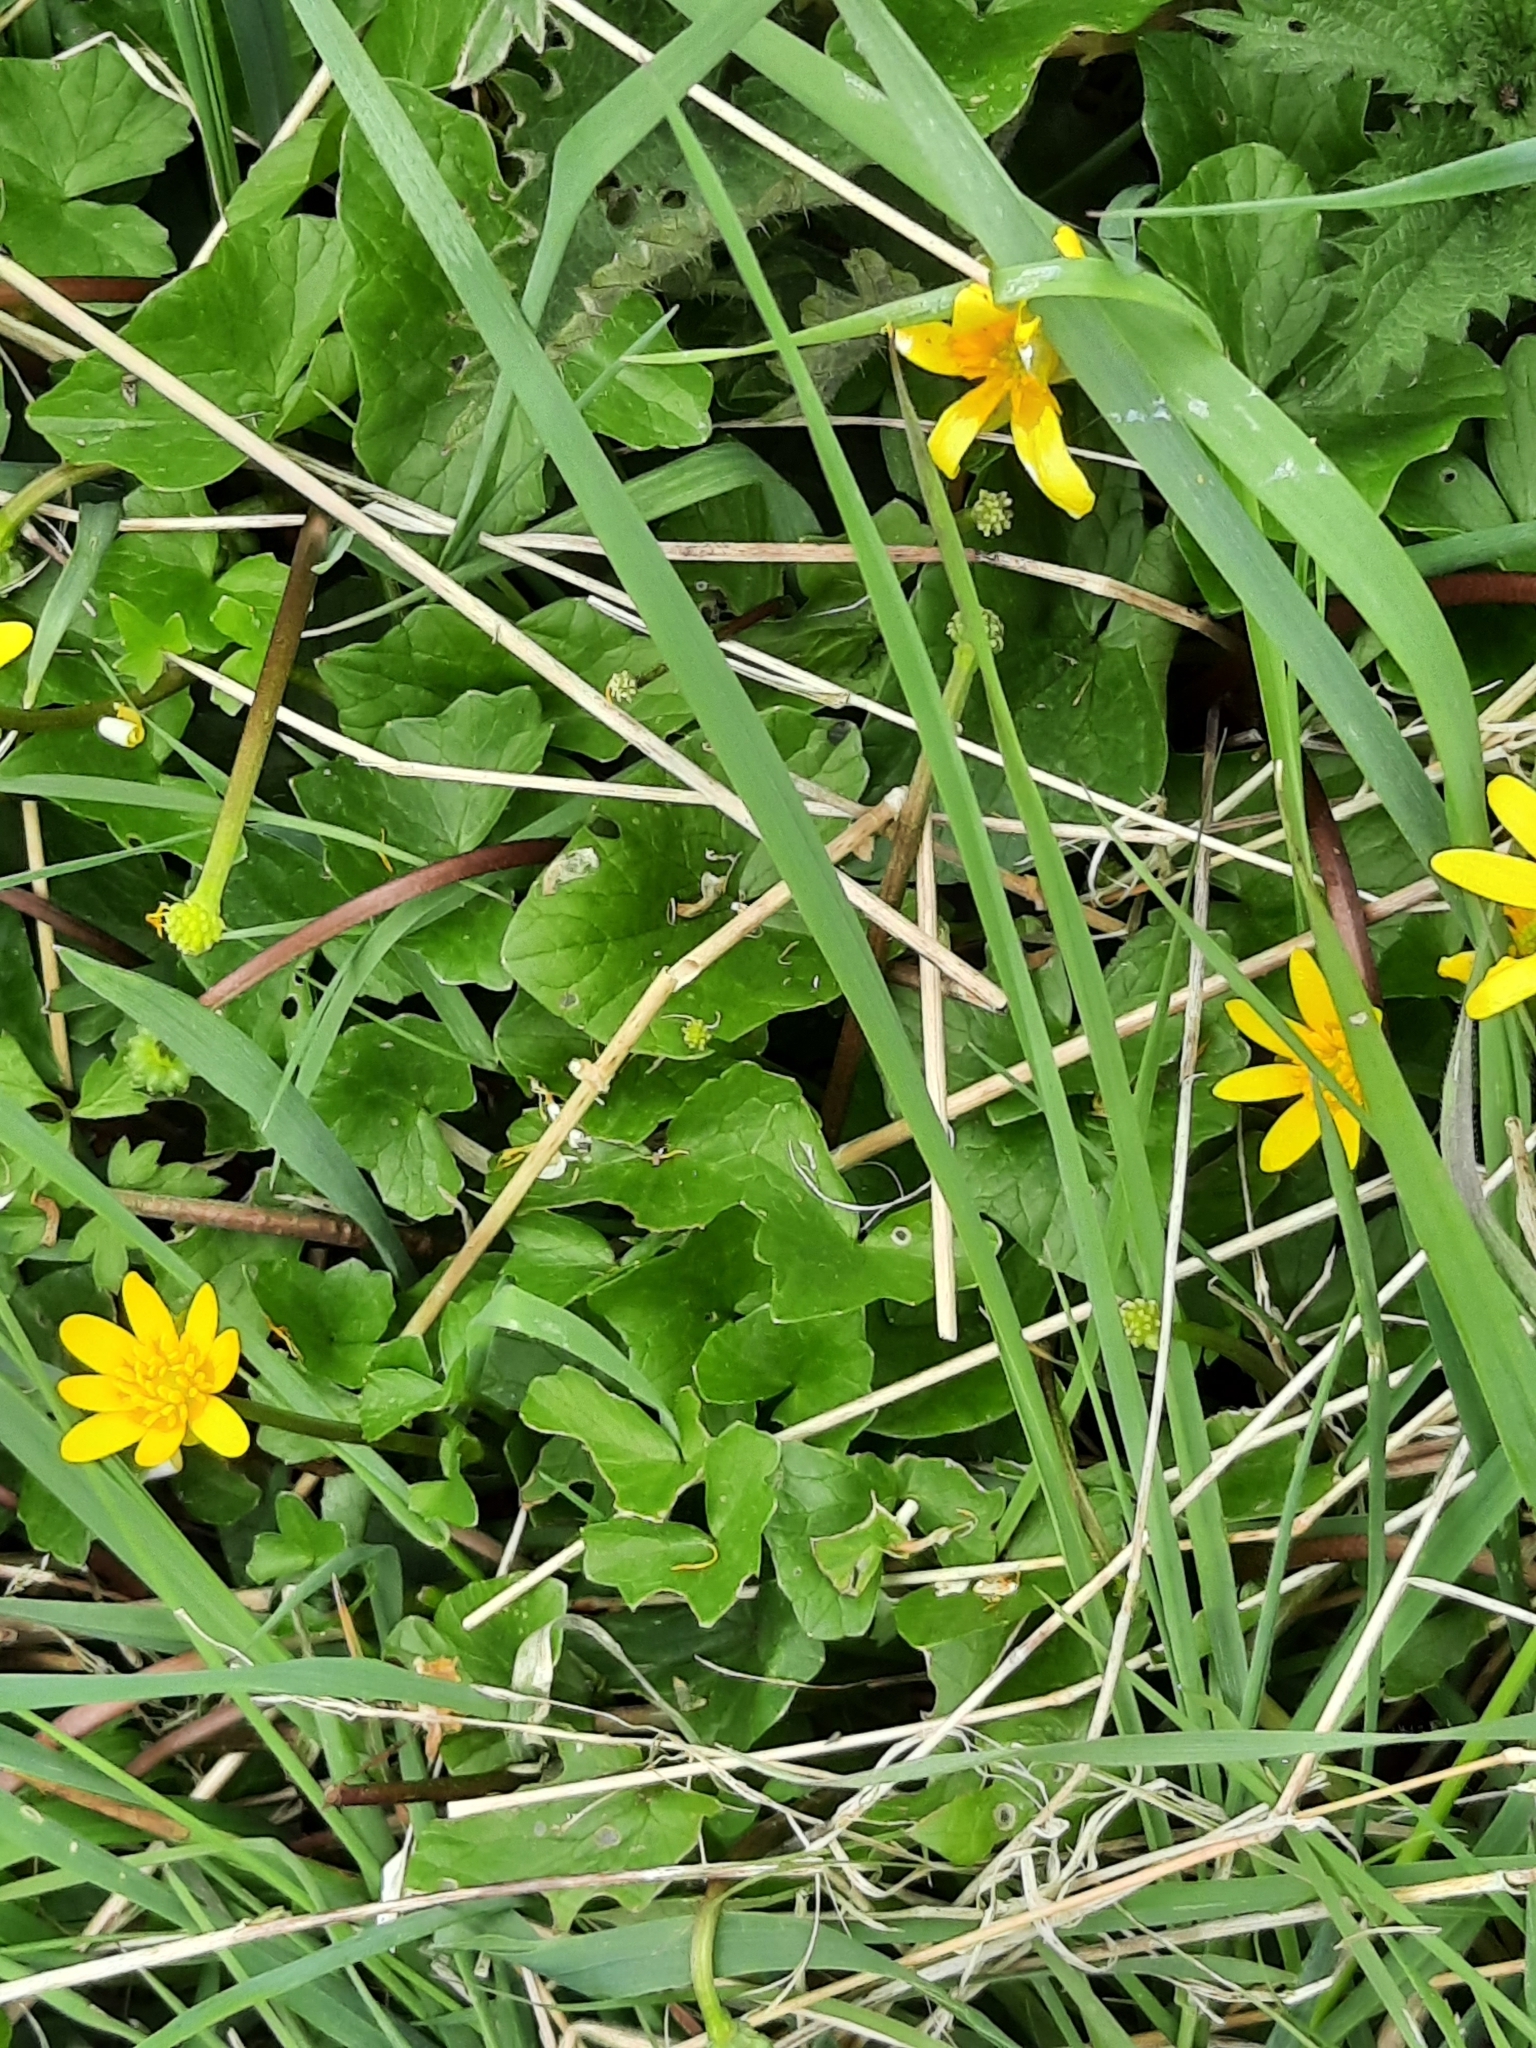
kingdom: Plantae
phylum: Tracheophyta
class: Magnoliopsida
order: Ranunculales
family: Ranunculaceae
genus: Ficaria
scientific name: Ficaria verna
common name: Lesser celandine
